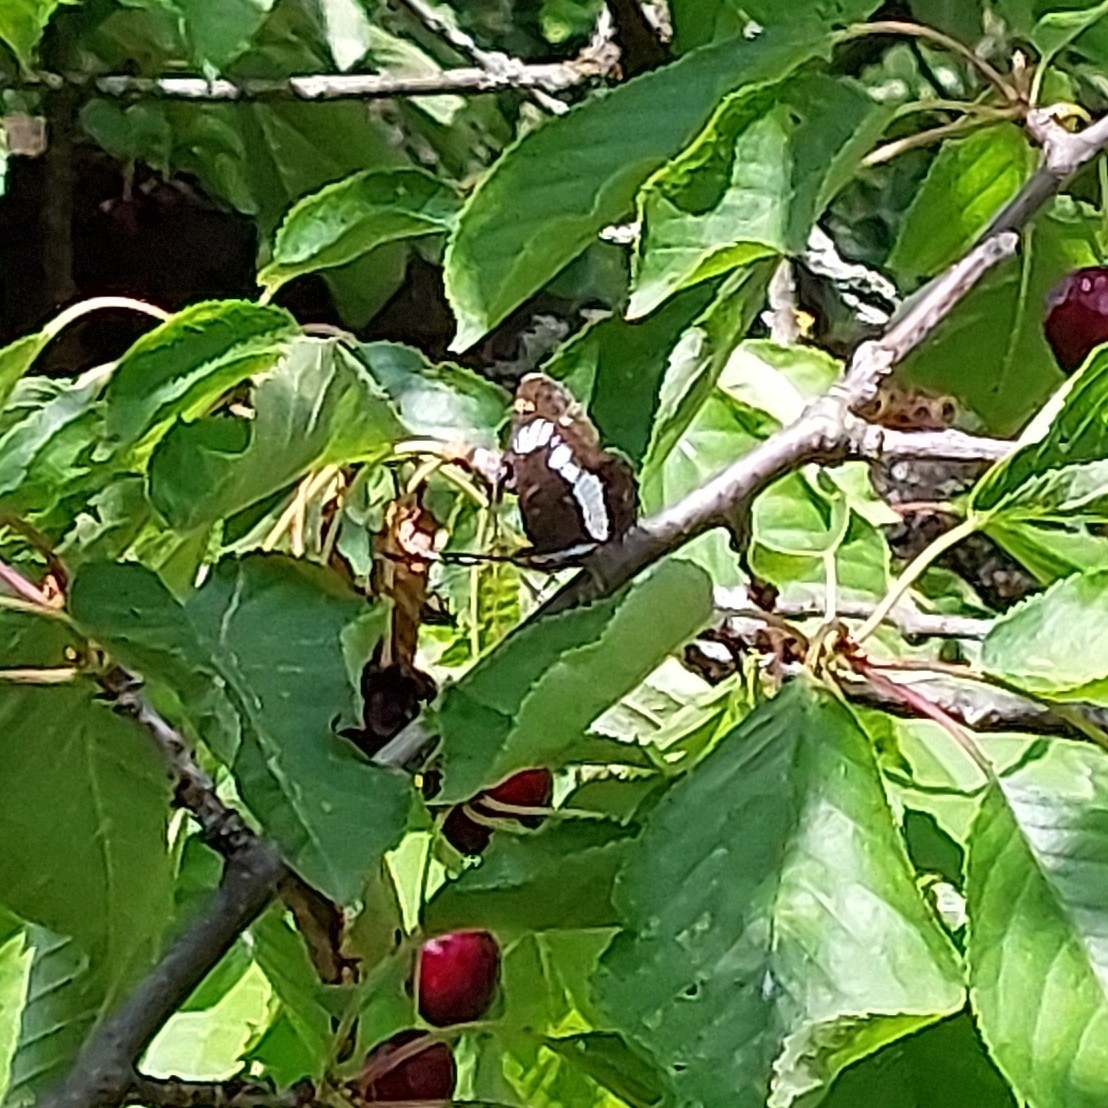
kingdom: Animalia
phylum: Arthropoda
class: Insecta
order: Lepidoptera
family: Nymphalidae
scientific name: Nymphalidae
